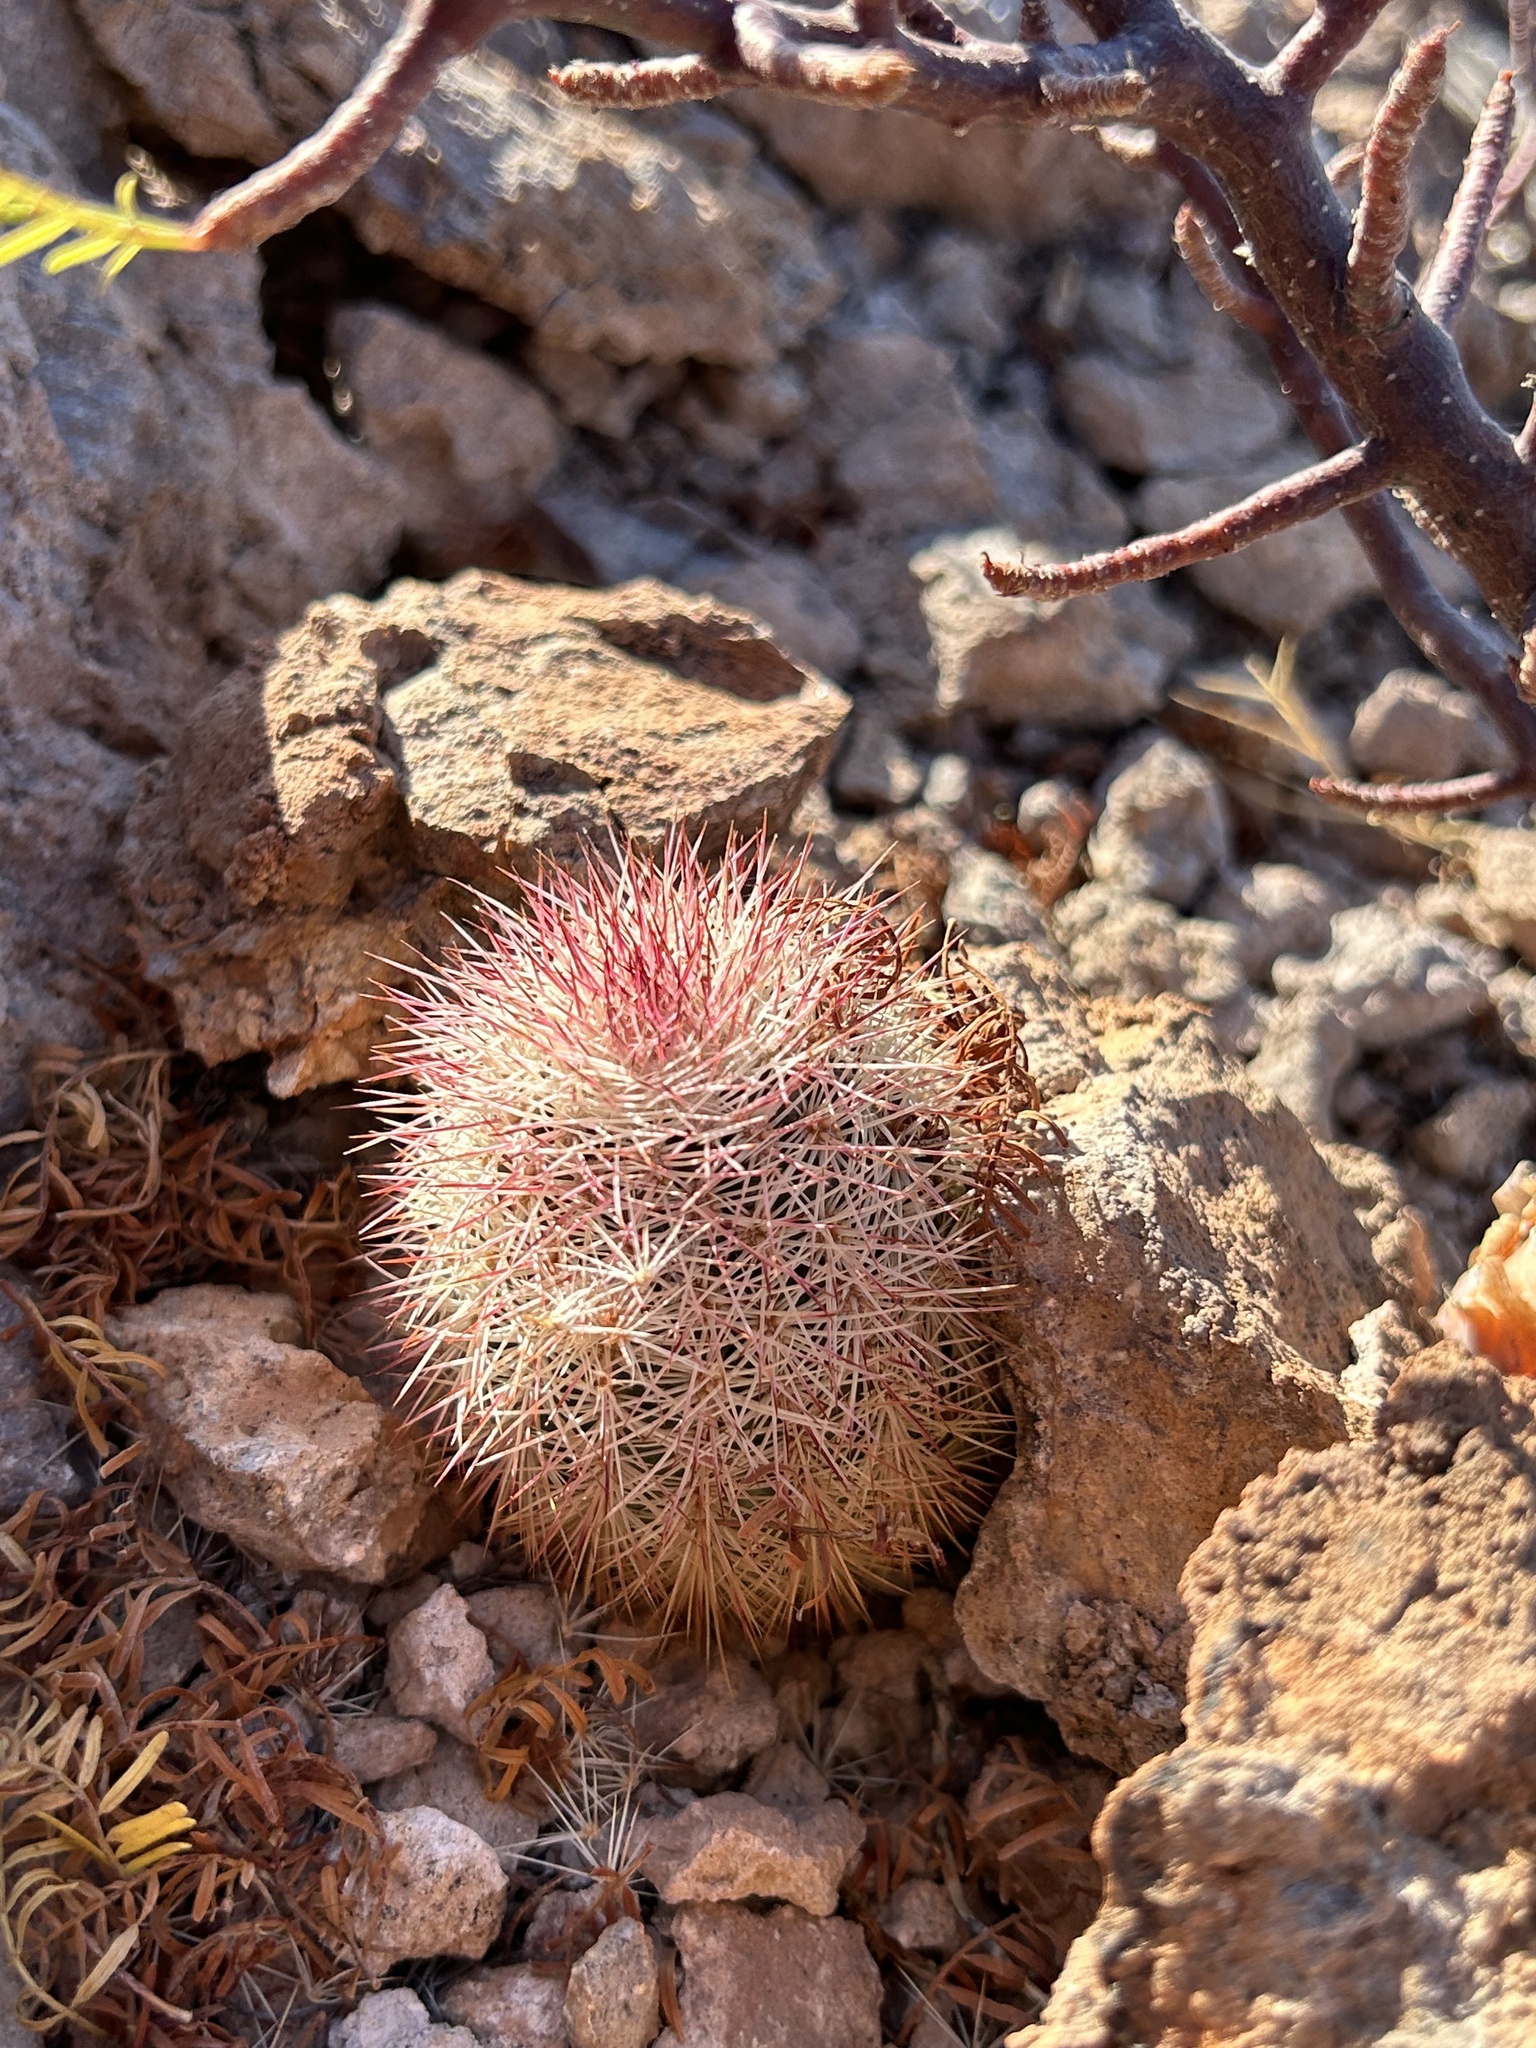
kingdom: Plantae
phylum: Tracheophyta
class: Magnoliopsida
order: Caryophyllales
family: Cactaceae
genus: Echinocereus
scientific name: Echinocereus scopulorum
